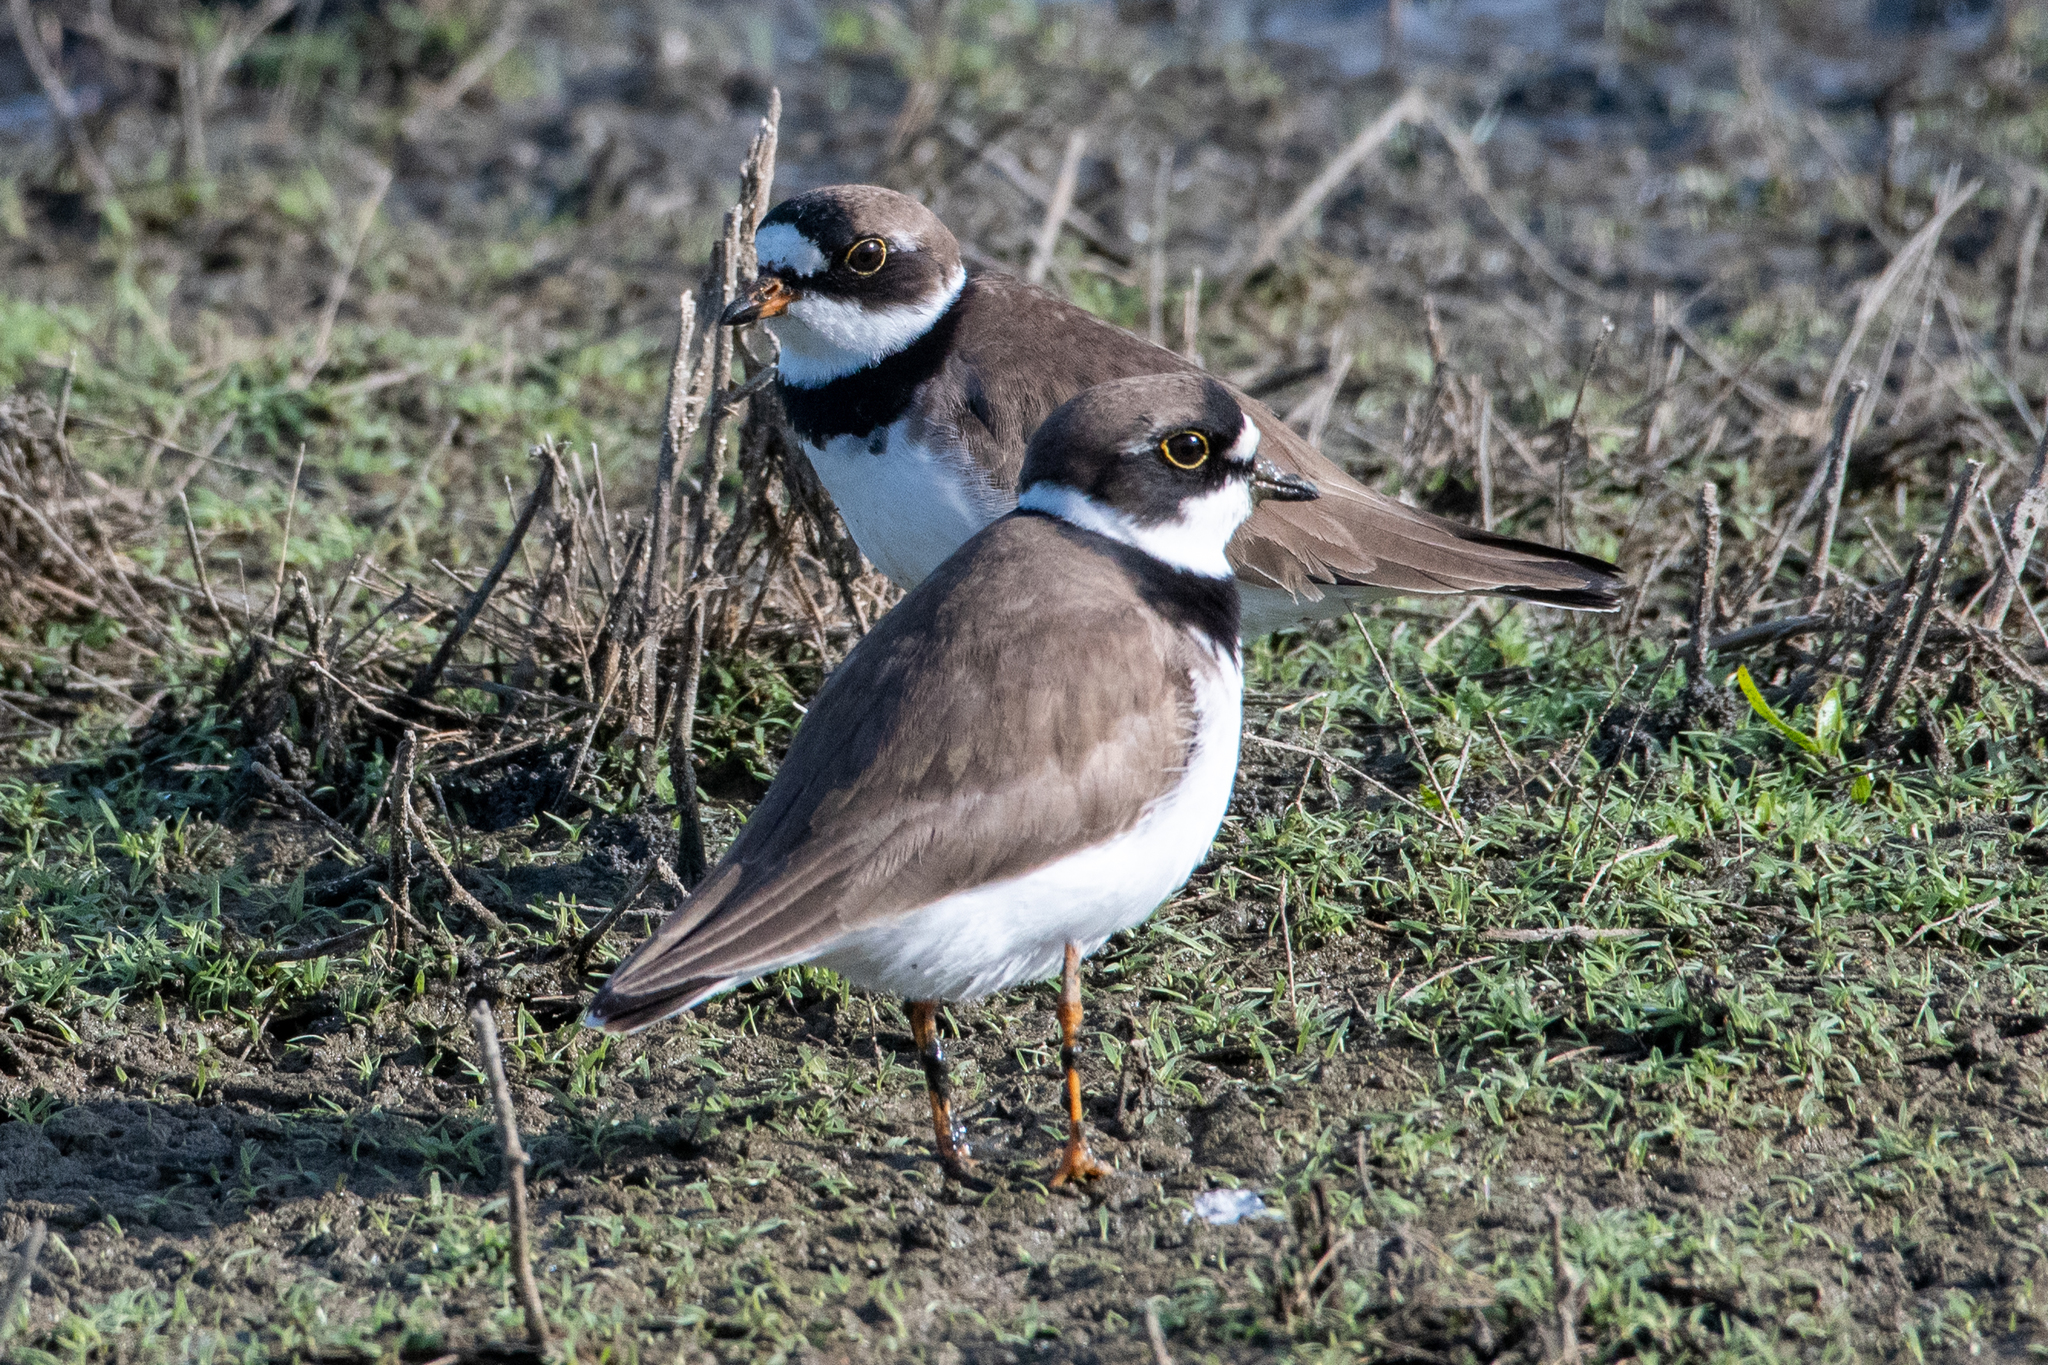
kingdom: Animalia
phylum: Chordata
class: Aves
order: Charadriiformes
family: Charadriidae
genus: Charadrius
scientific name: Charadrius semipalmatus
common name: Semipalmated plover
